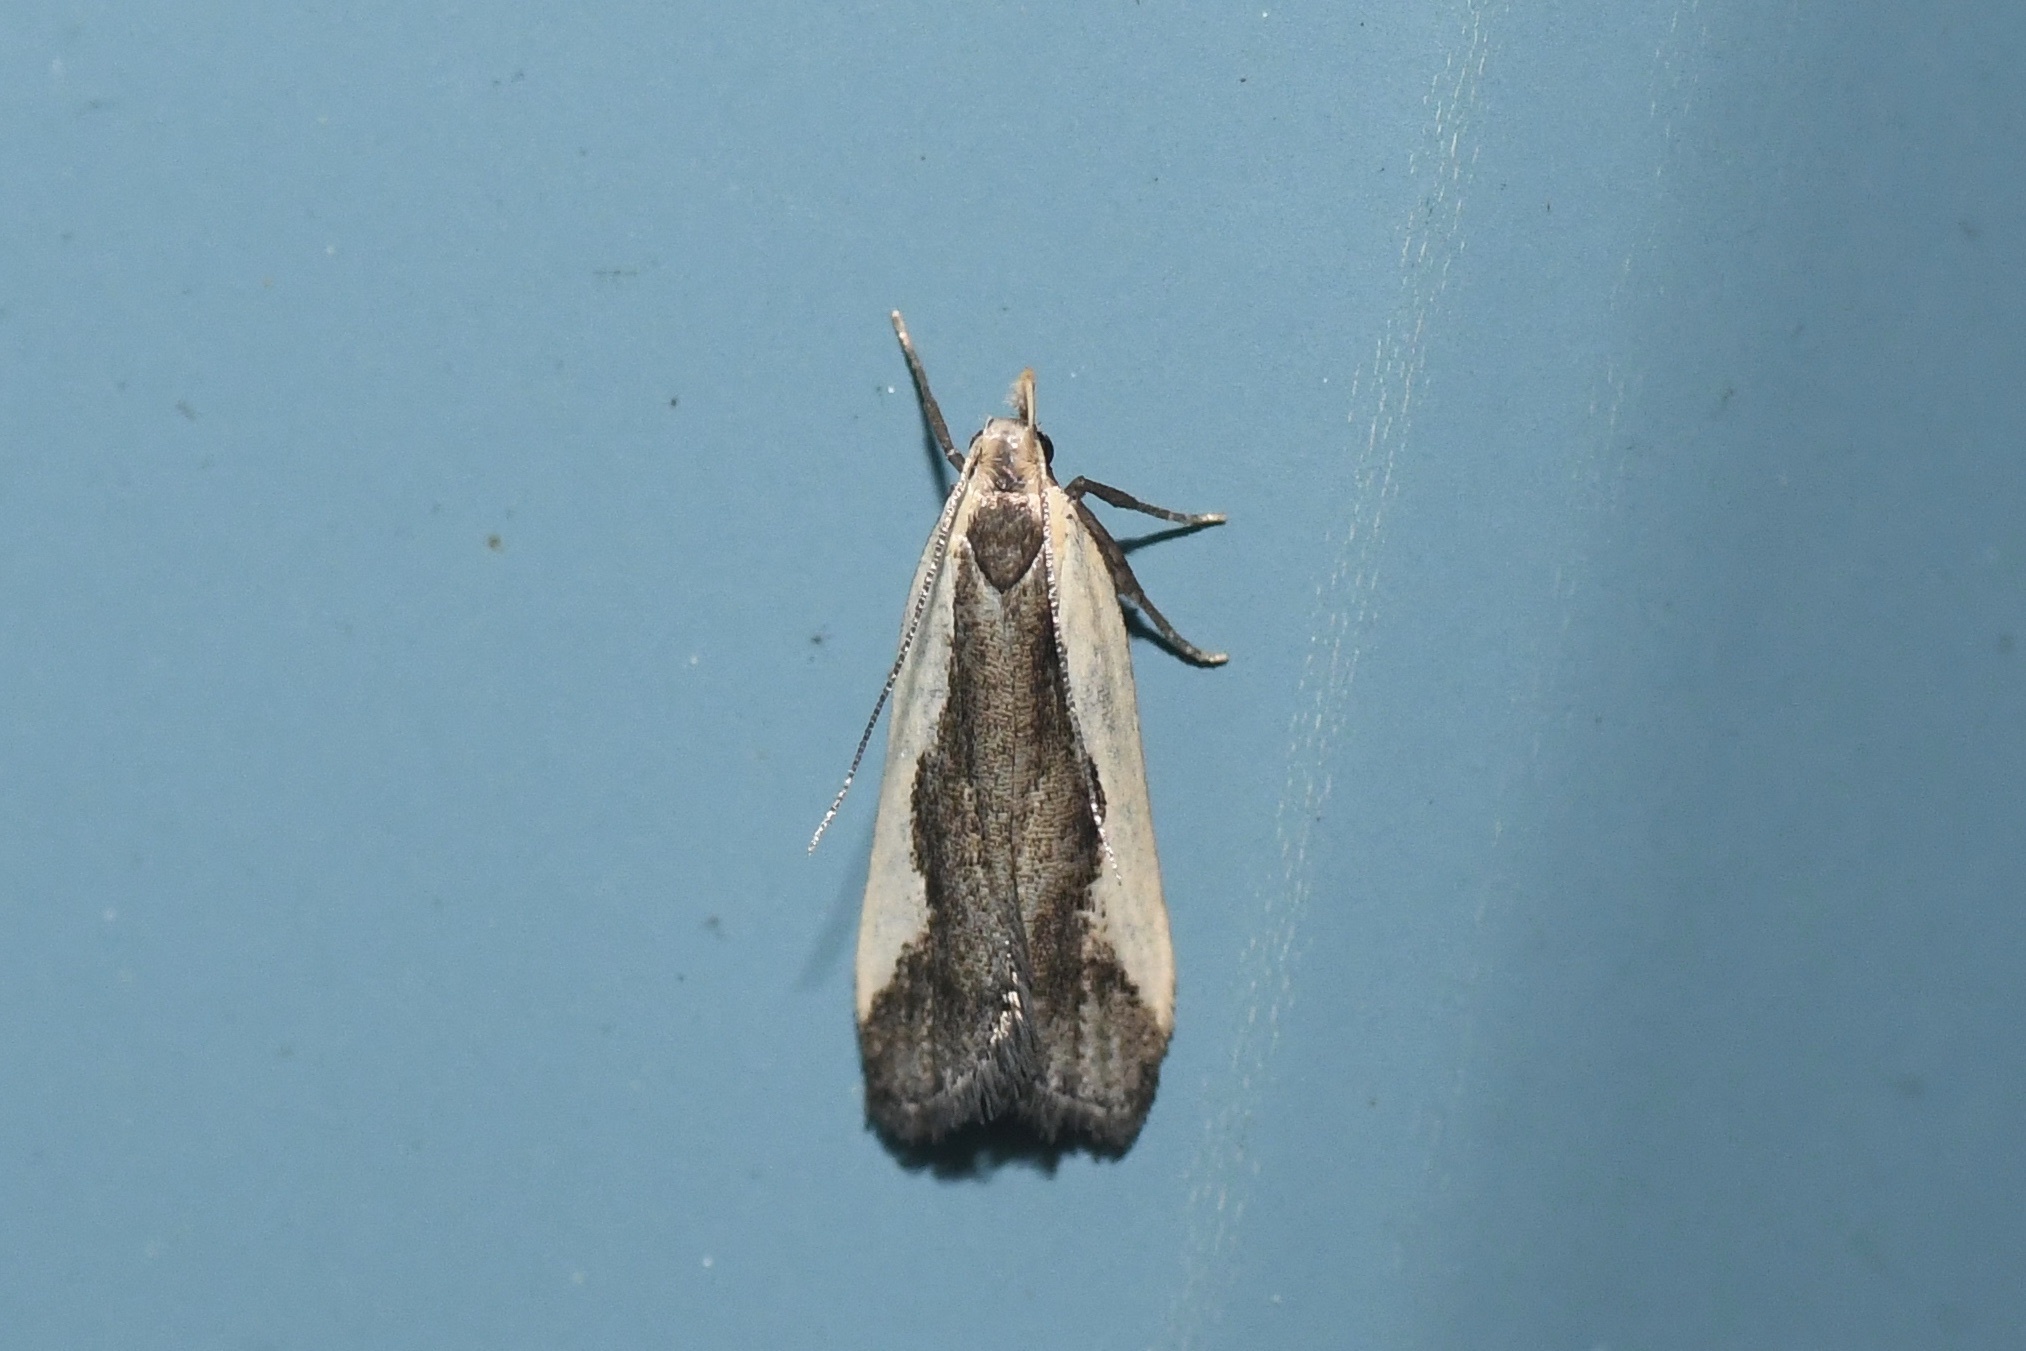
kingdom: Animalia
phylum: Arthropoda
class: Insecta
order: Lepidoptera
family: Gelechiidae
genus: Dichomeris
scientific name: Dichomeris inserrata
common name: Indented dichomeris moth
